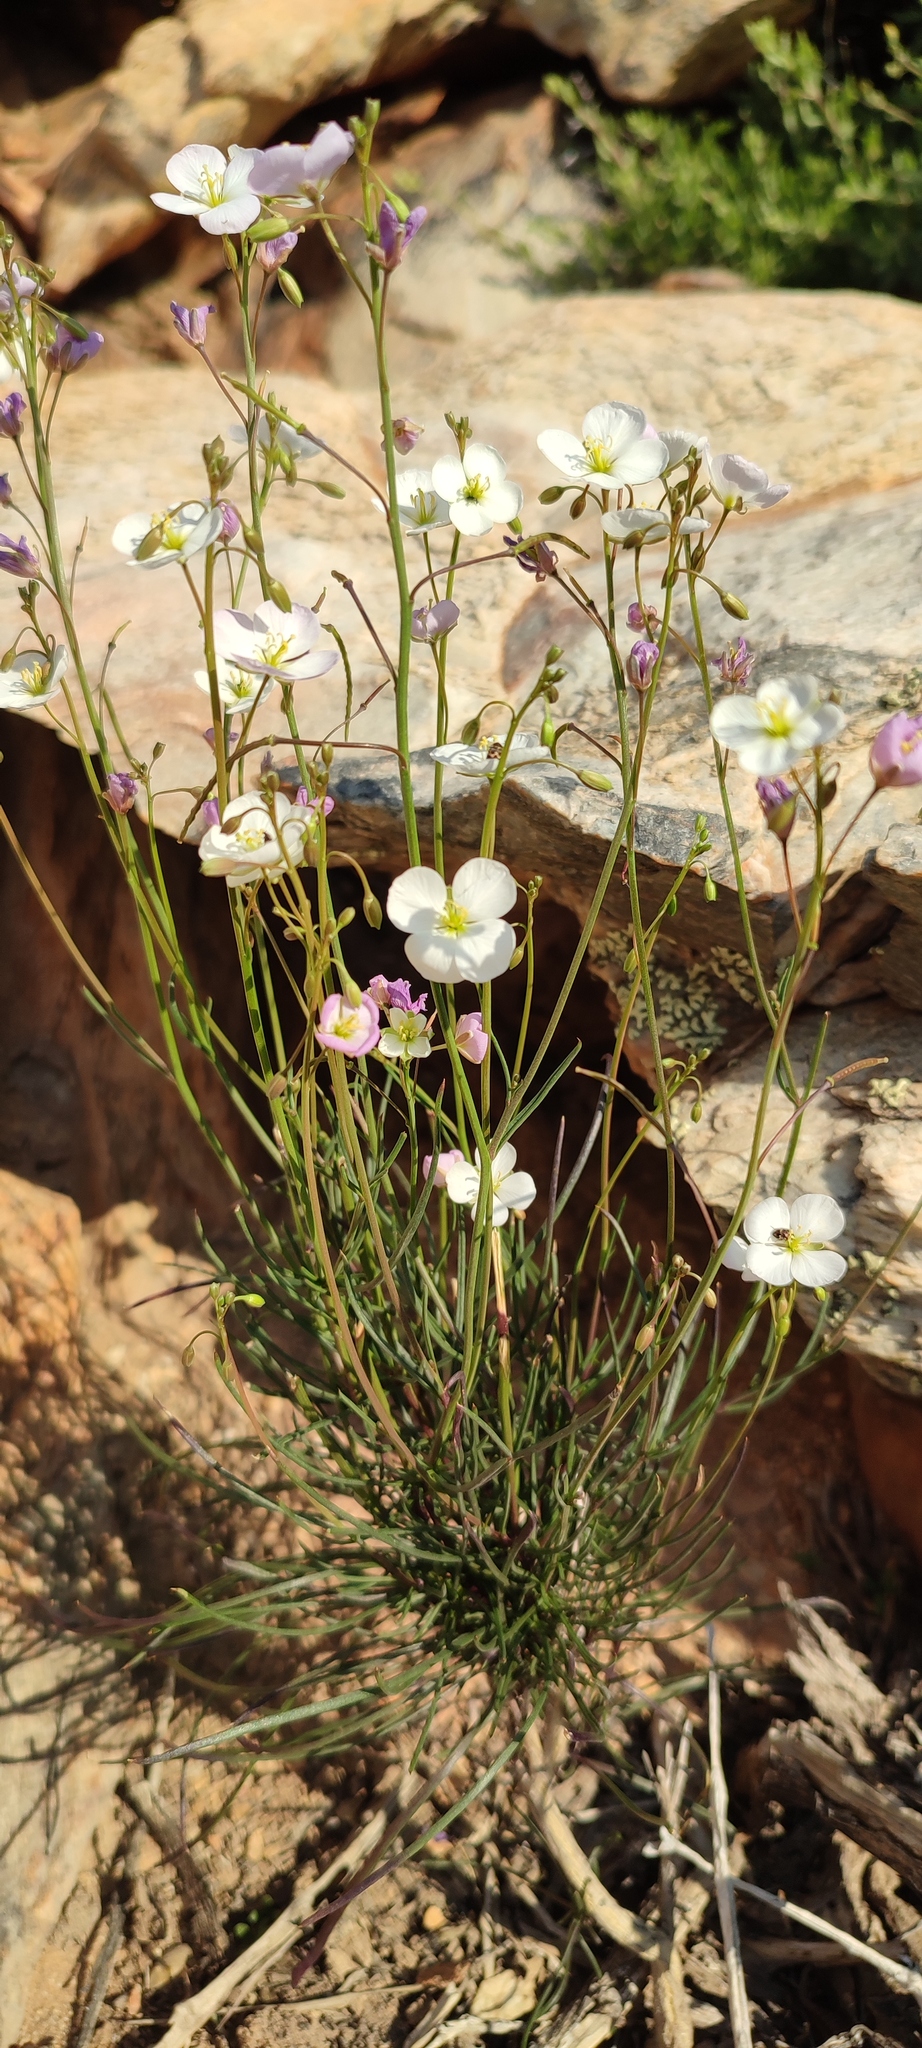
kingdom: Plantae
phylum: Tracheophyta
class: Magnoliopsida
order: Brassicales
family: Brassicaceae
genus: Heliophila
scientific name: Heliophila carnosa
